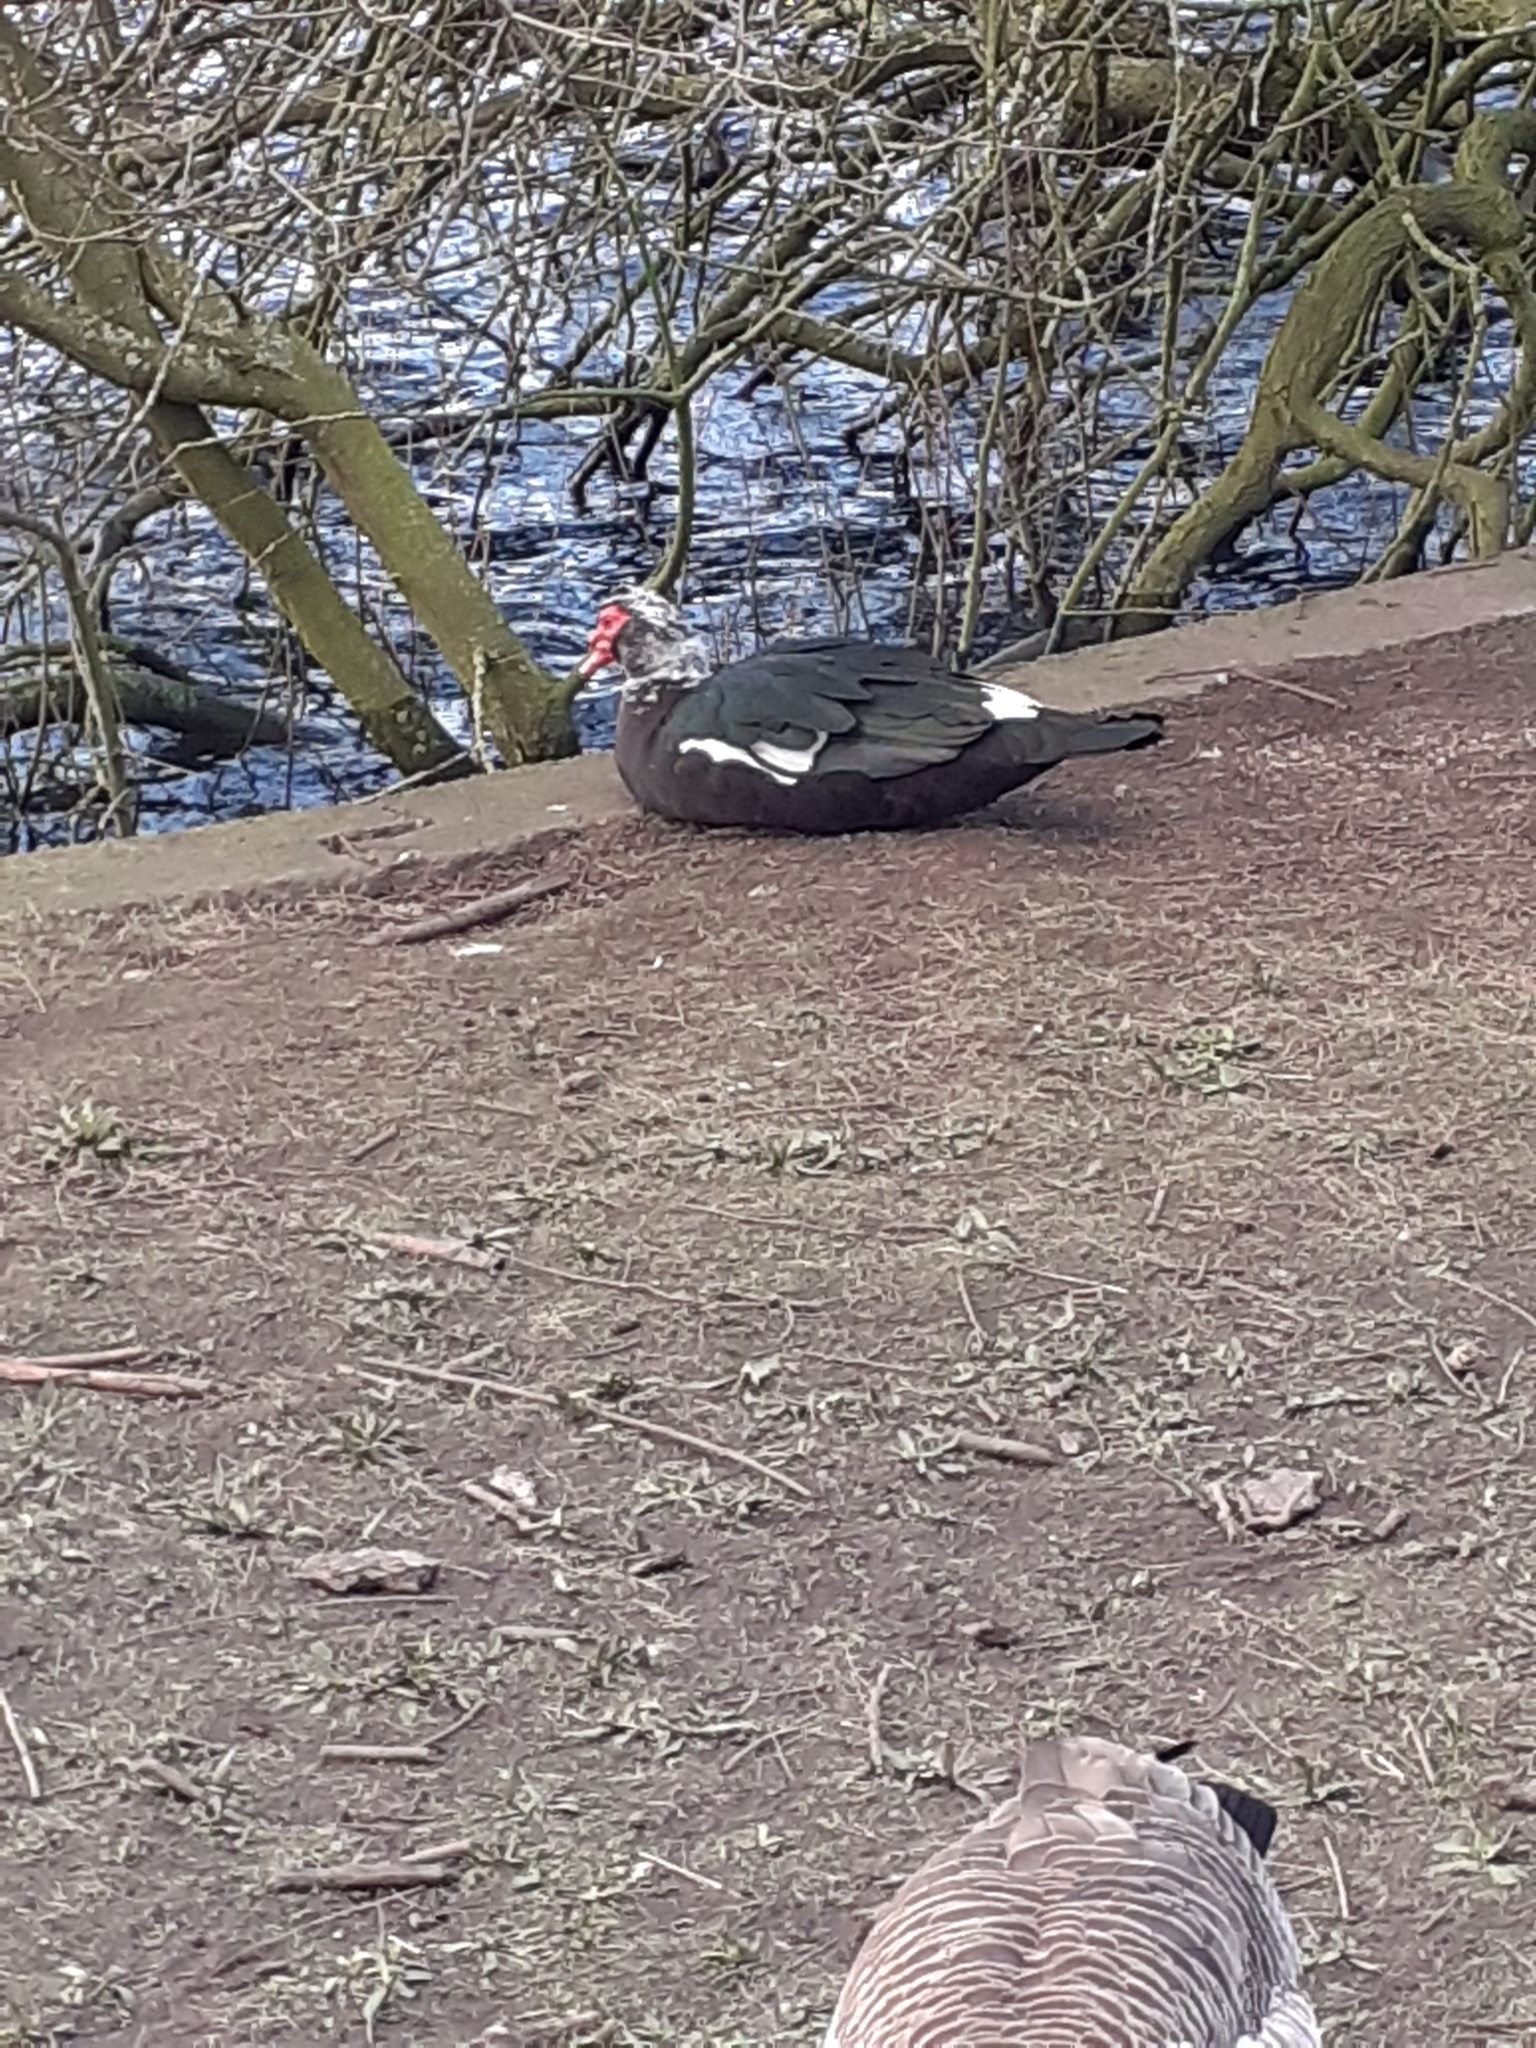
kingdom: Animalia
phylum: Chordata
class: Aves
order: Anseriformes
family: Anatidae
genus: Cairina
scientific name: Cairina moschata
